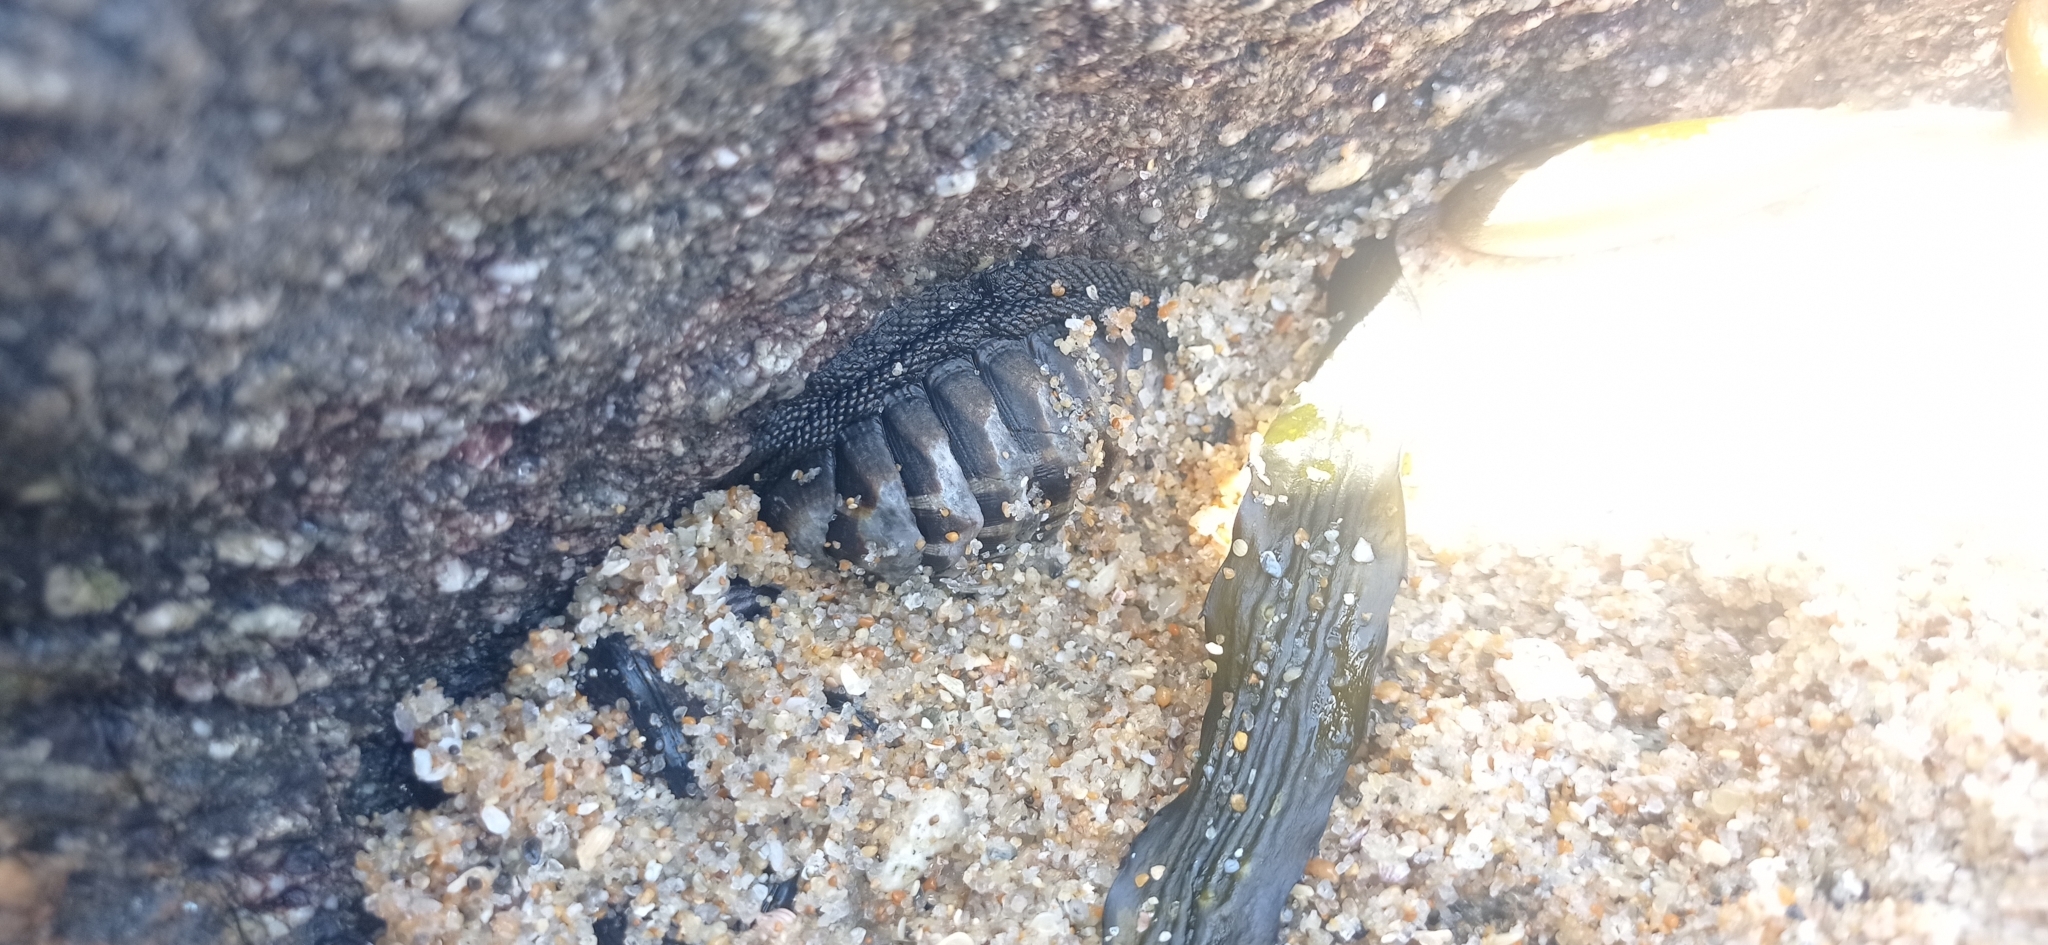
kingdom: Animalia
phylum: Mollusca
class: Polyplacophora
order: Chitonida
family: Chitonidae
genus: Chiton
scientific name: Chiton granosus
